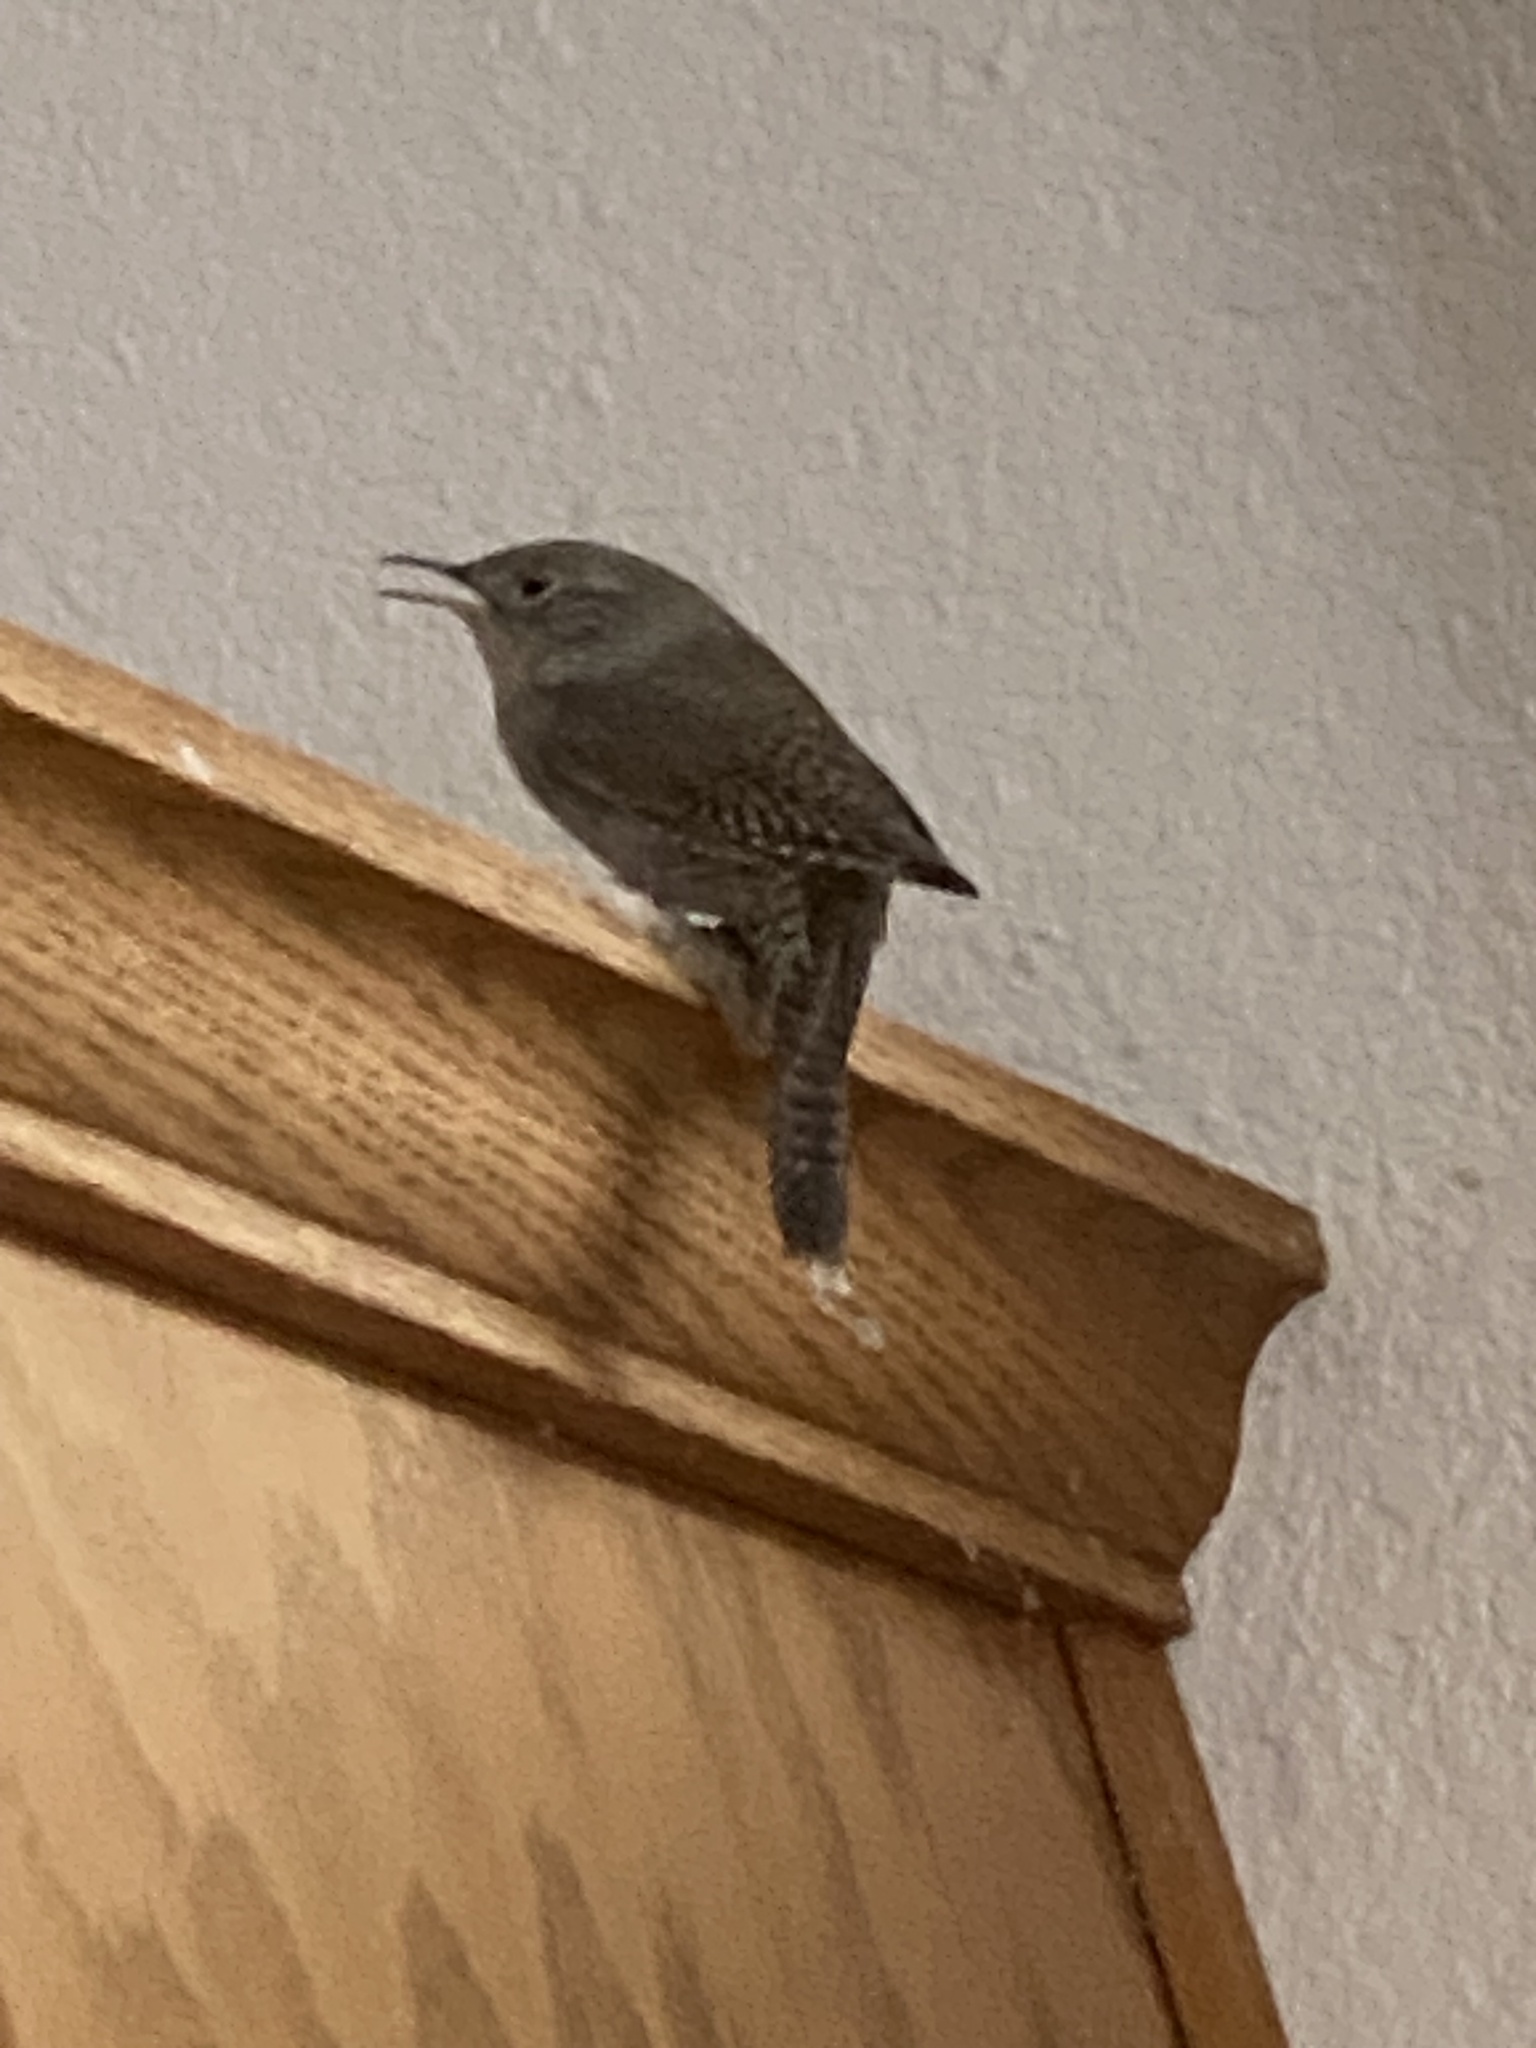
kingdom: Animalia
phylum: Chordata
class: Aves
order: Passeriformes
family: Troglodytidae
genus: Troglodytes
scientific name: Troglodytes aedon
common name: House wren
